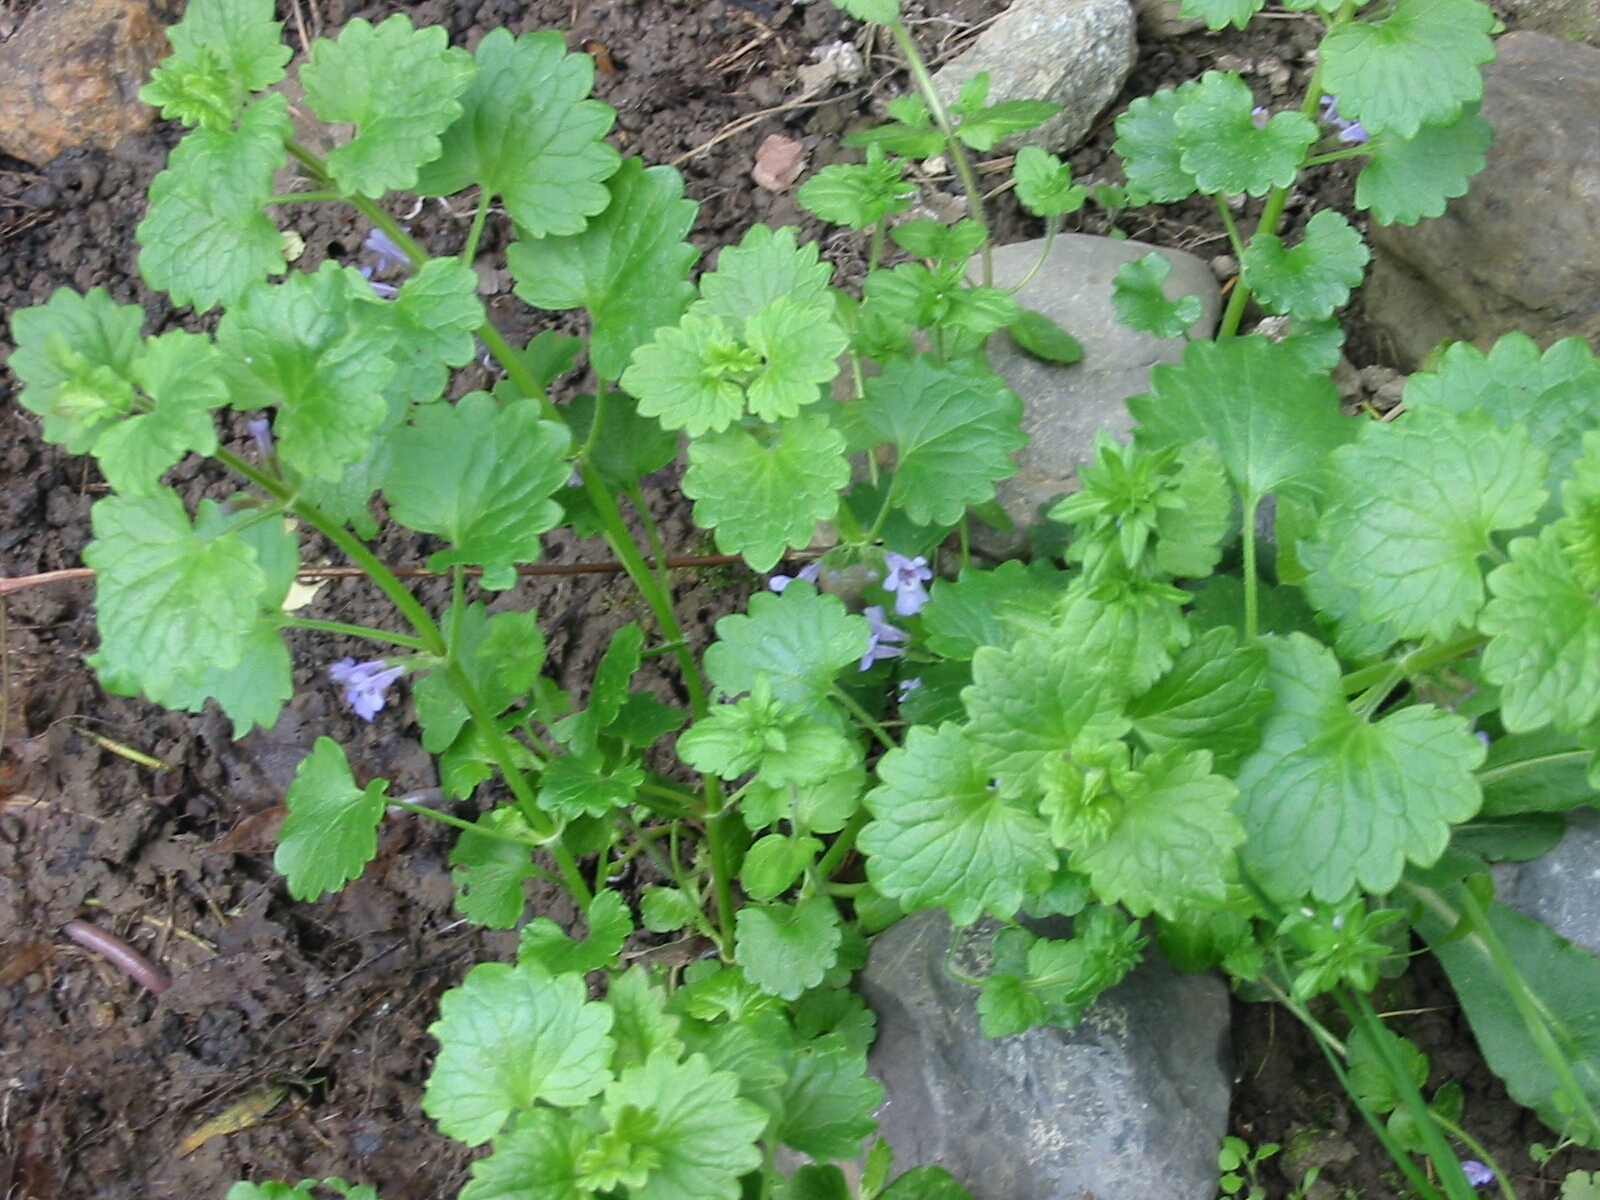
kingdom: Plantae
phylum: Tracheophyta
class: Magnoliopsida
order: Lamiales
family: Lamiaceae
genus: Glechoma
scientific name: Glechoma hederacea
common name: Ground ivy
